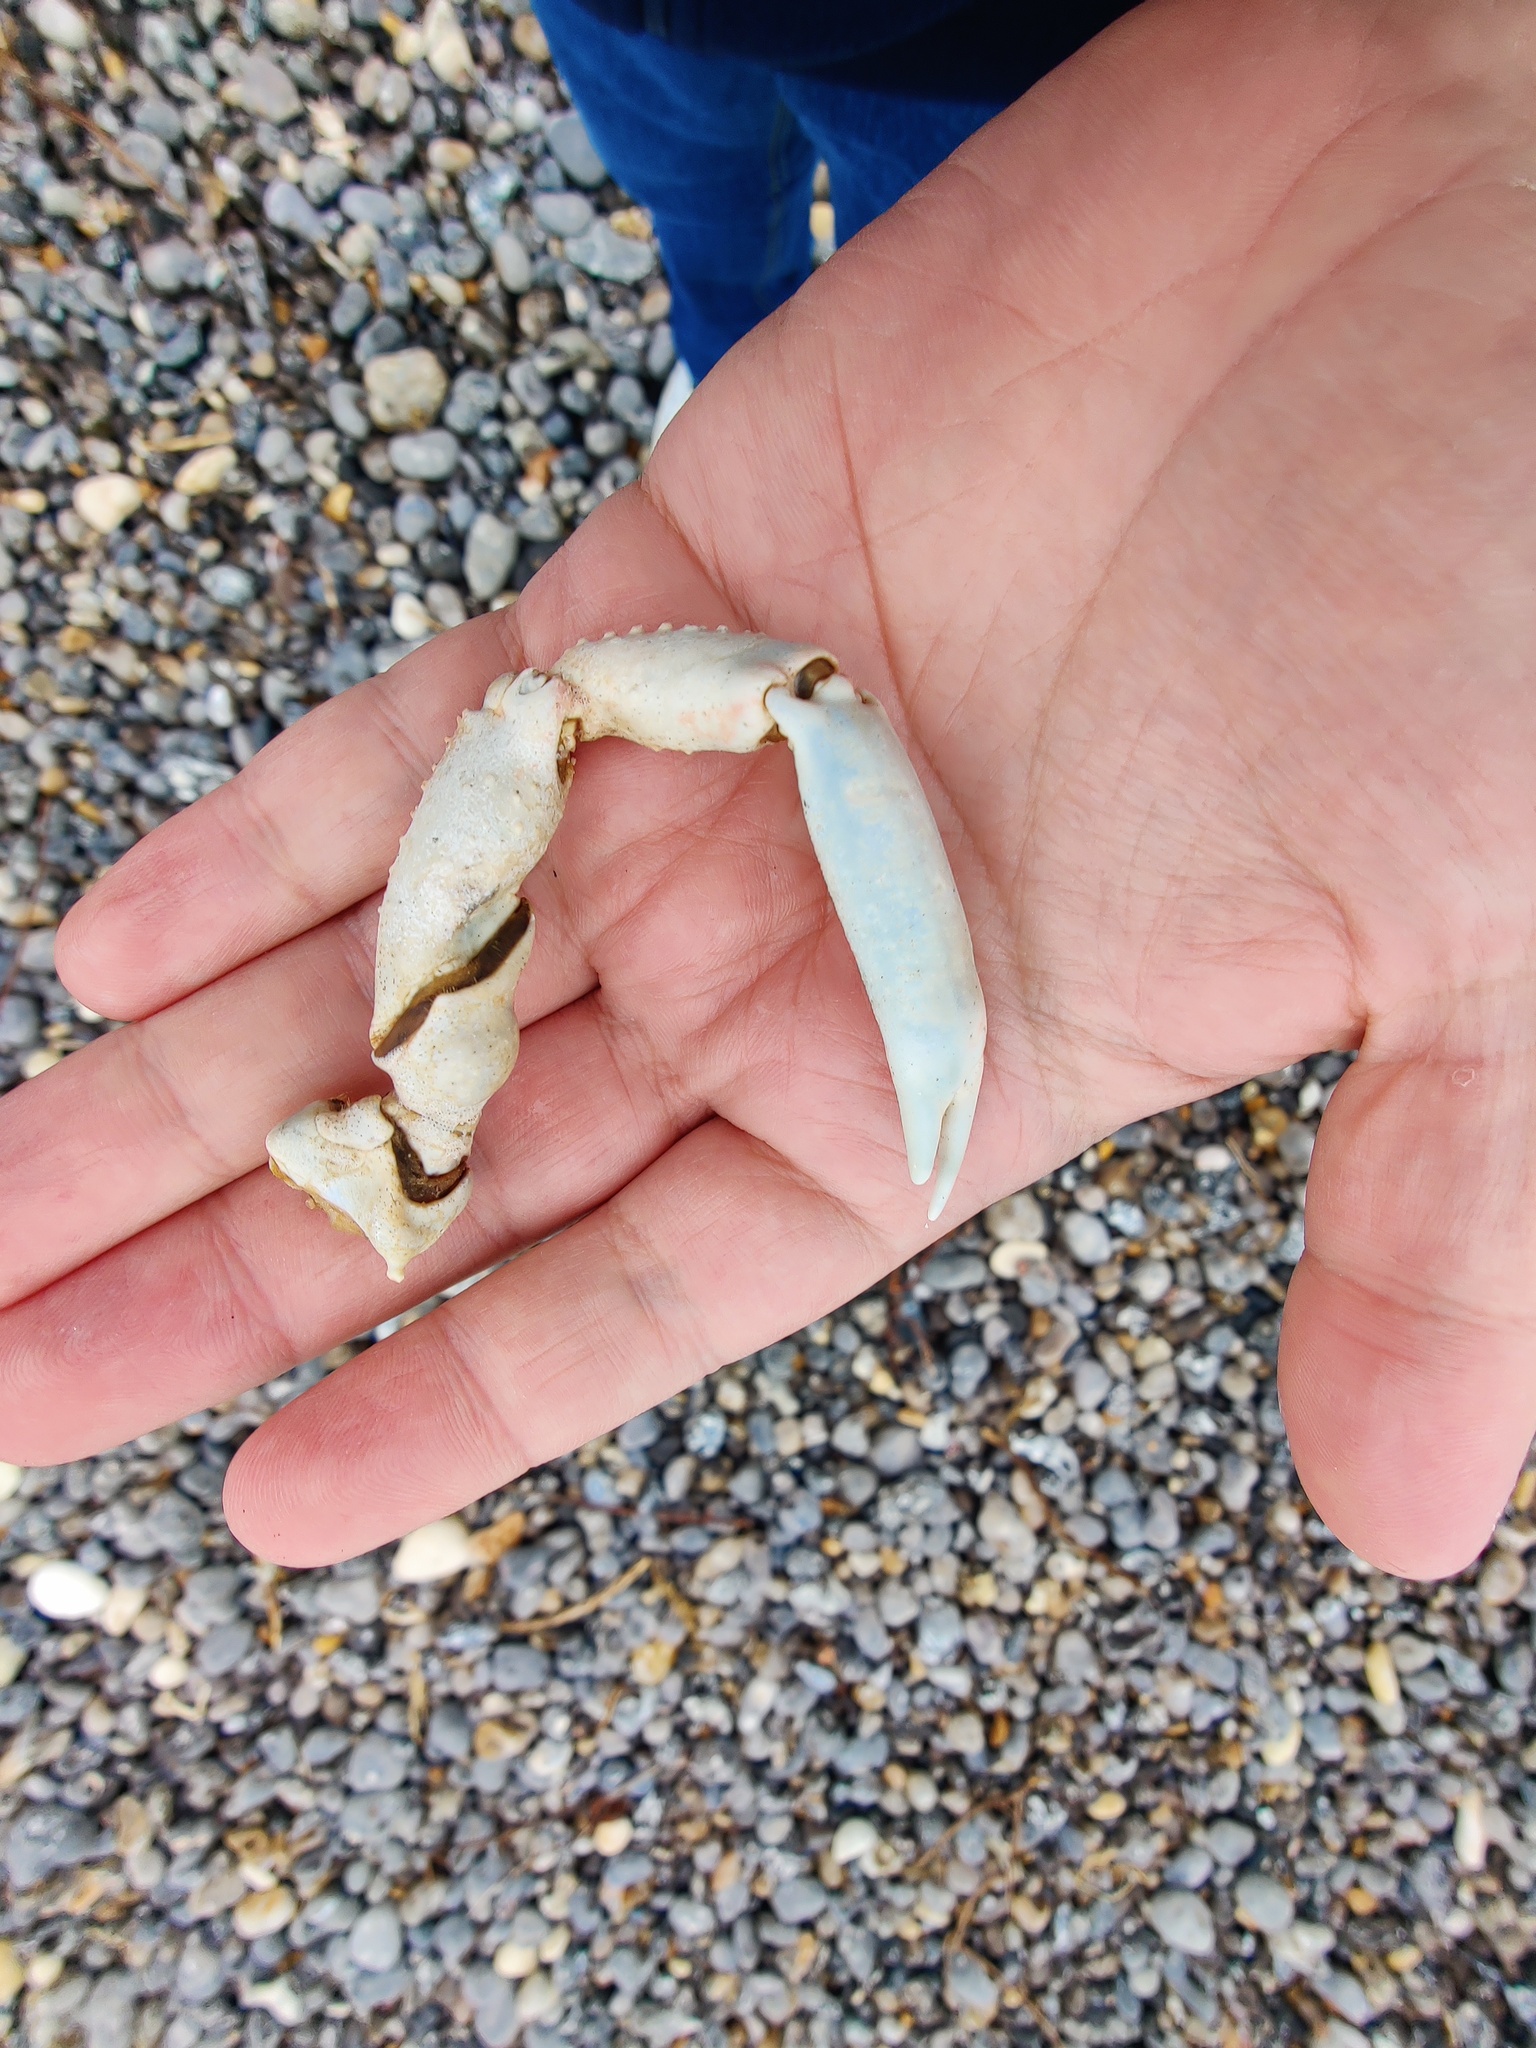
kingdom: Animalia
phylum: Arthropoda
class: Malacostraca
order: Decapoda
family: Majidae
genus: Maja
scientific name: Maja brachydactyla
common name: Common spider crab
